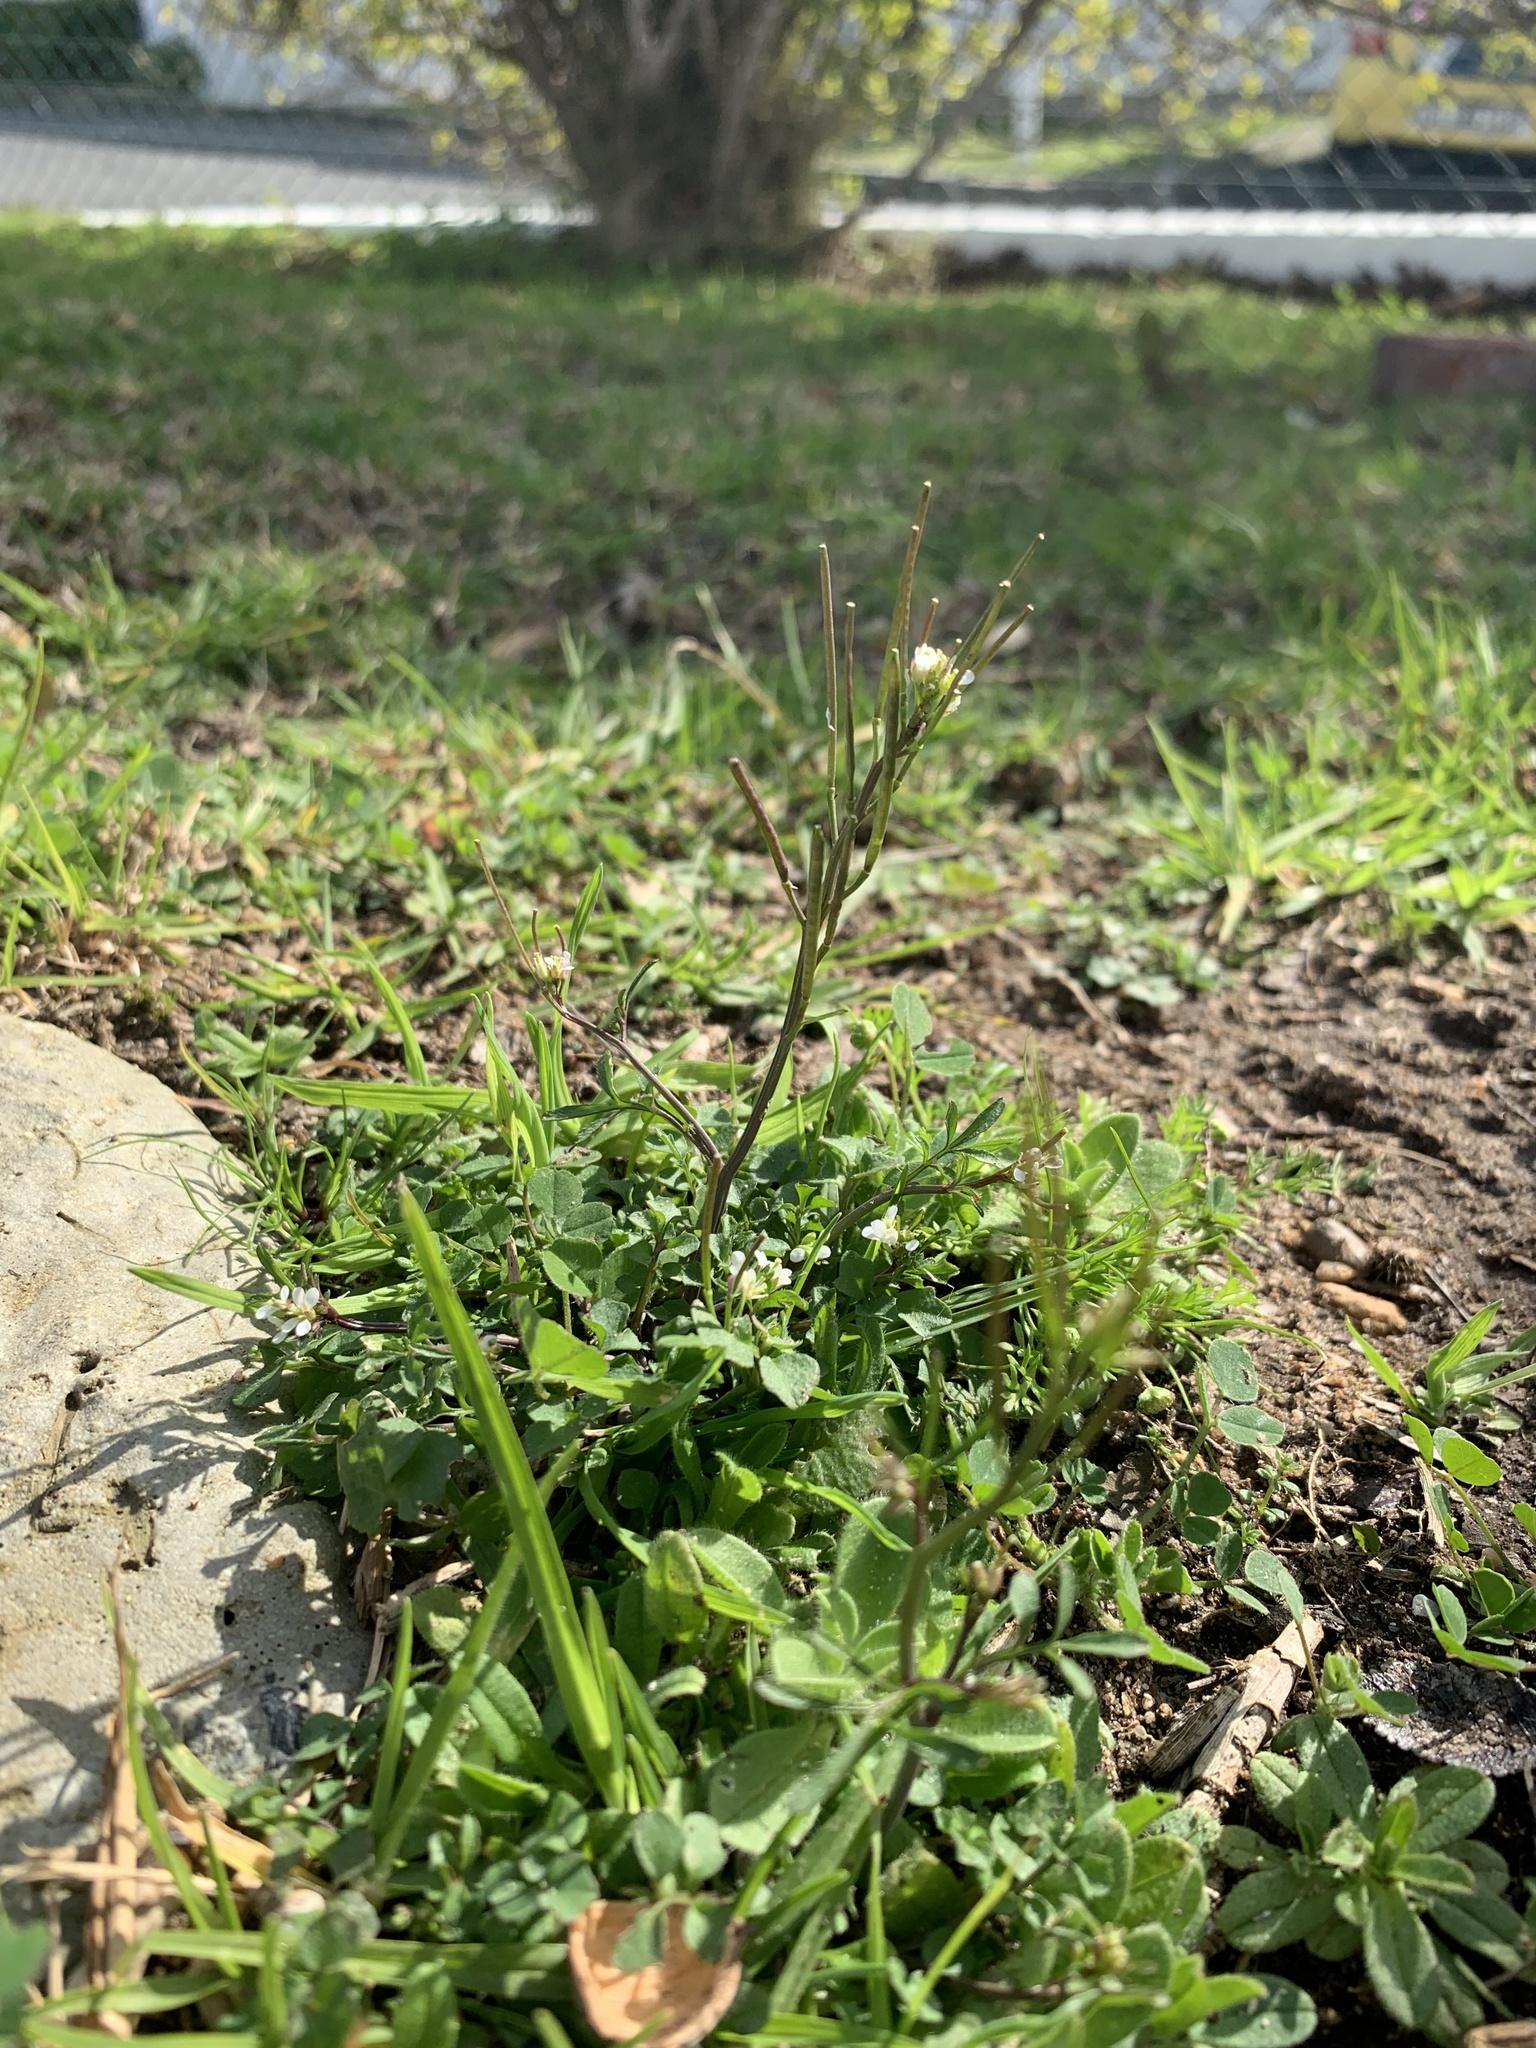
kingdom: Plantae
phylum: Tracheophyta
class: Magnoliopsida
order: Brassicales
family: Brassicaceae
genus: Cardamine
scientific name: Cardamine hirsuta
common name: Hairy bittercress
